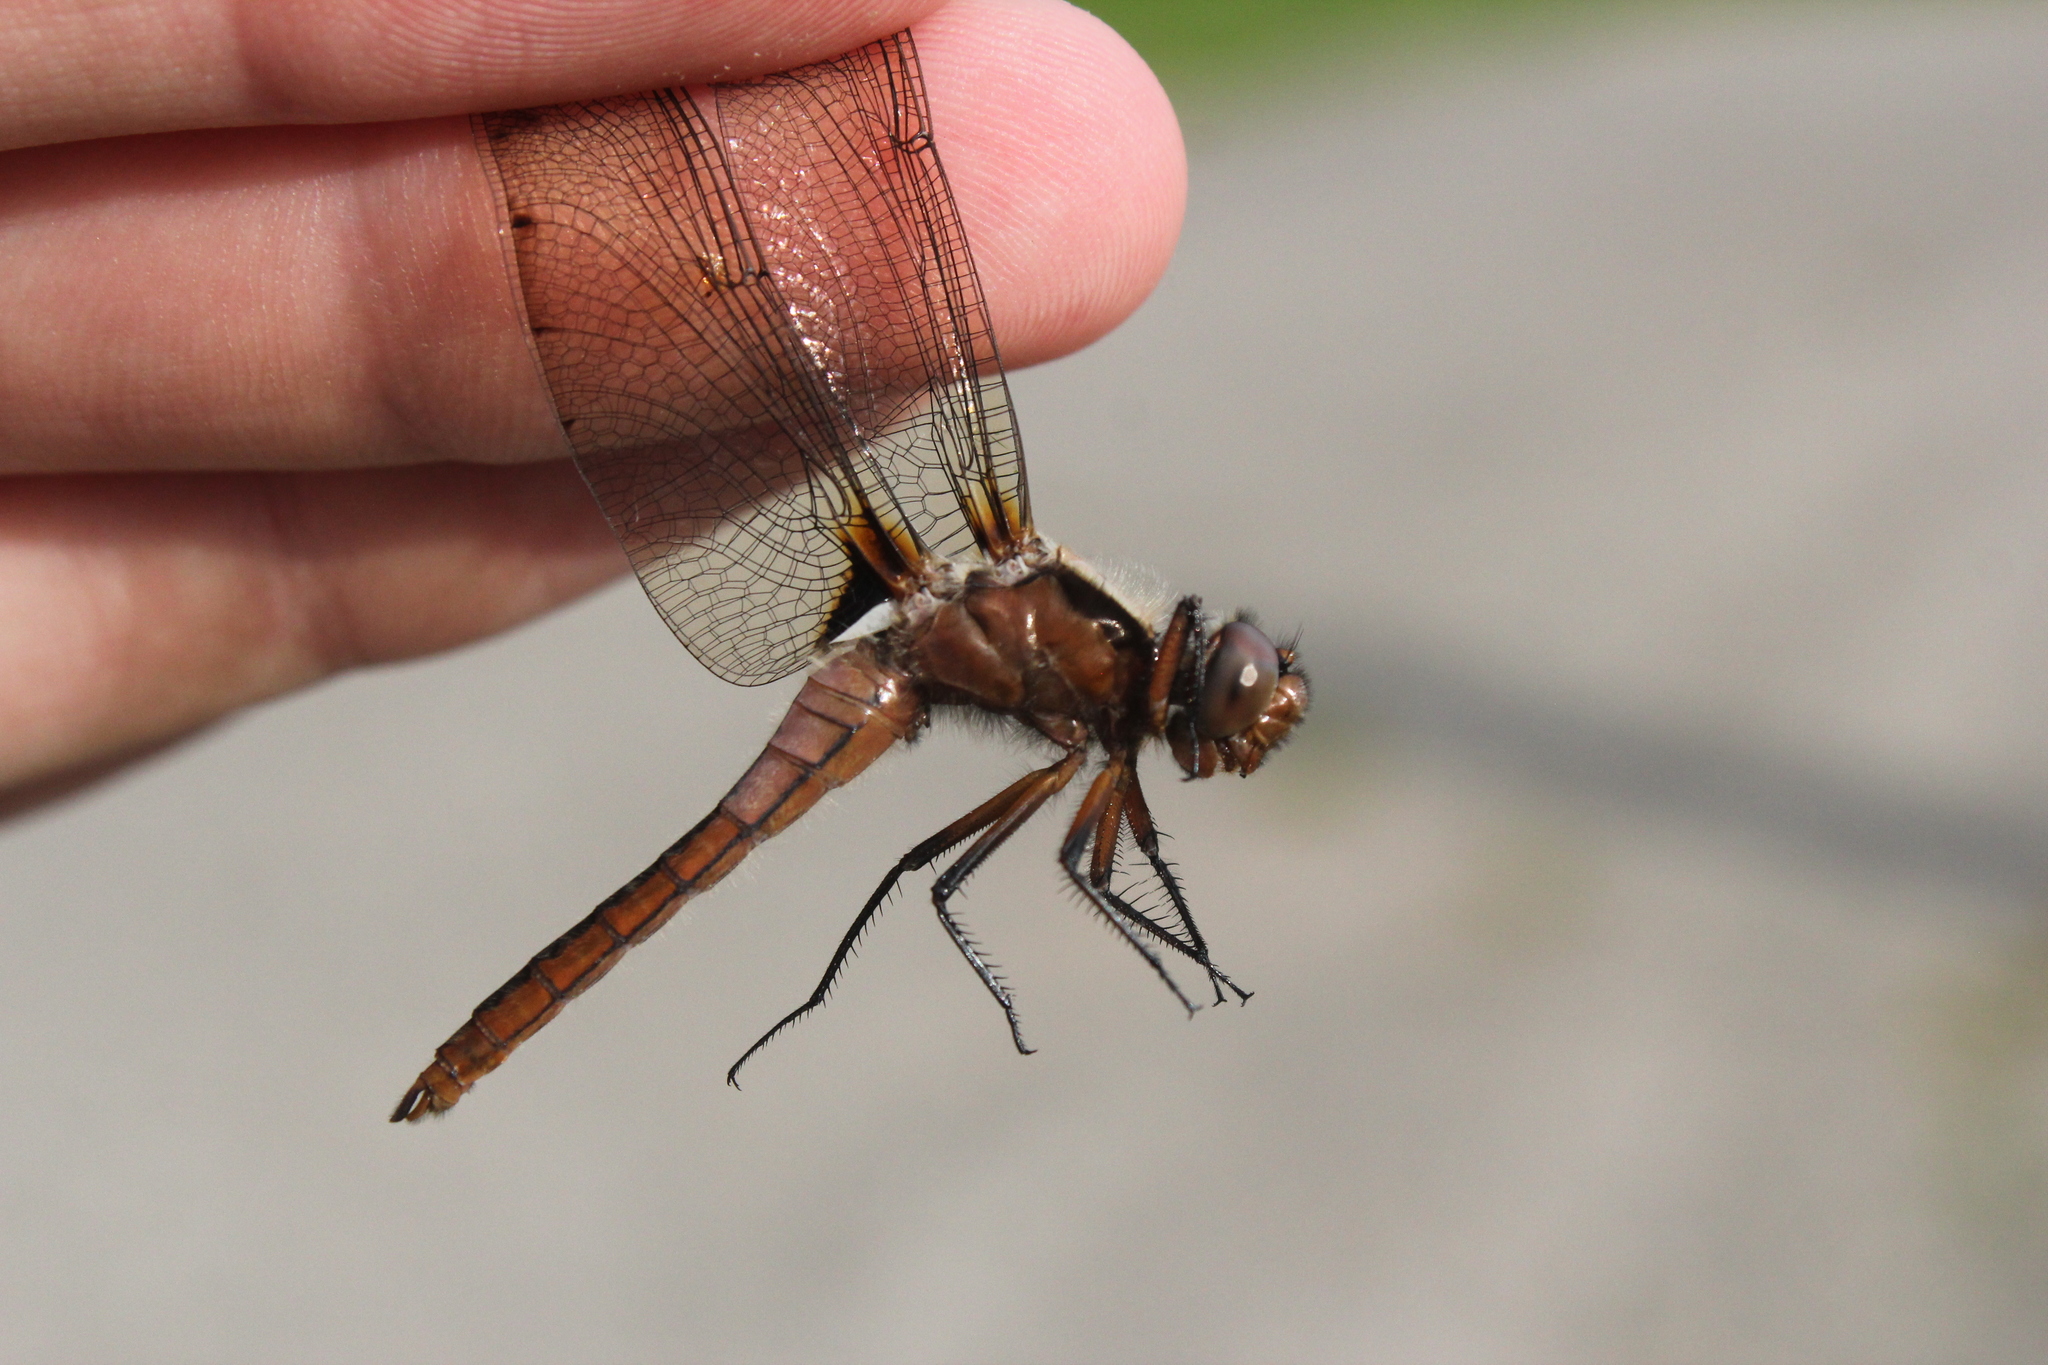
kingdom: Animalia
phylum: Arthropoda
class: Insecta
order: Odonata
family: Libellulidae
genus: Ladona
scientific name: Ladona julia
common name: Chalk-fronted corporal
